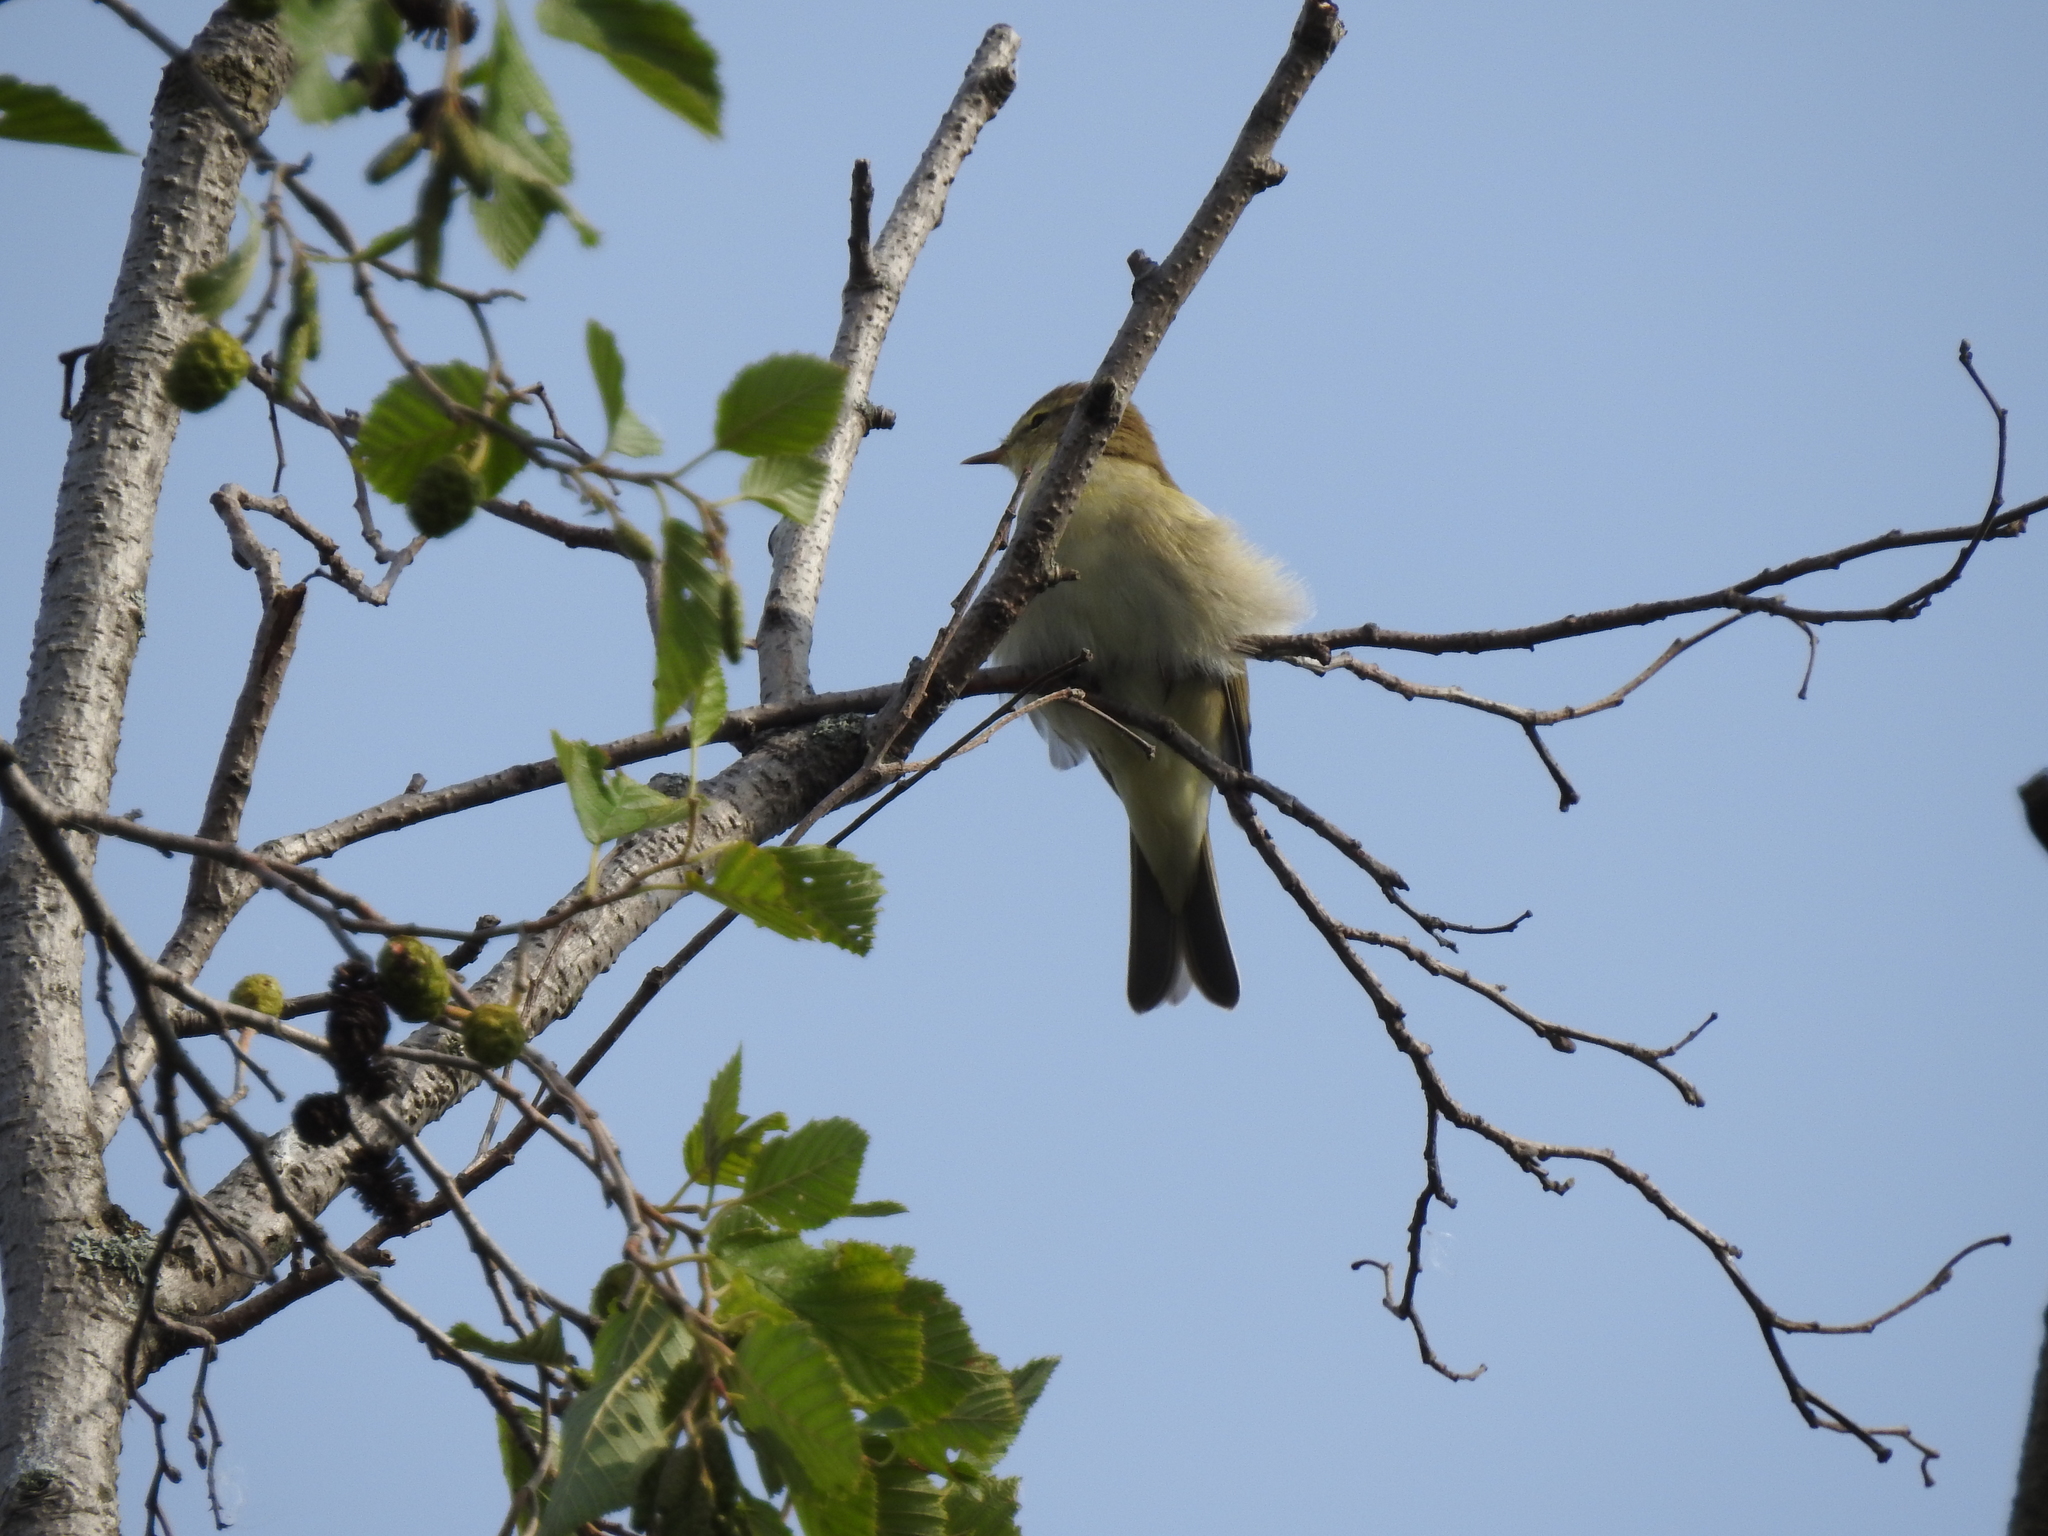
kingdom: Animalia
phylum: Chordata
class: Aves
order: Passeriformes
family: Phylloscopidae
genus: Phylloscopus
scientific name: Phylloscopus trochilus
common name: Willow warbler
